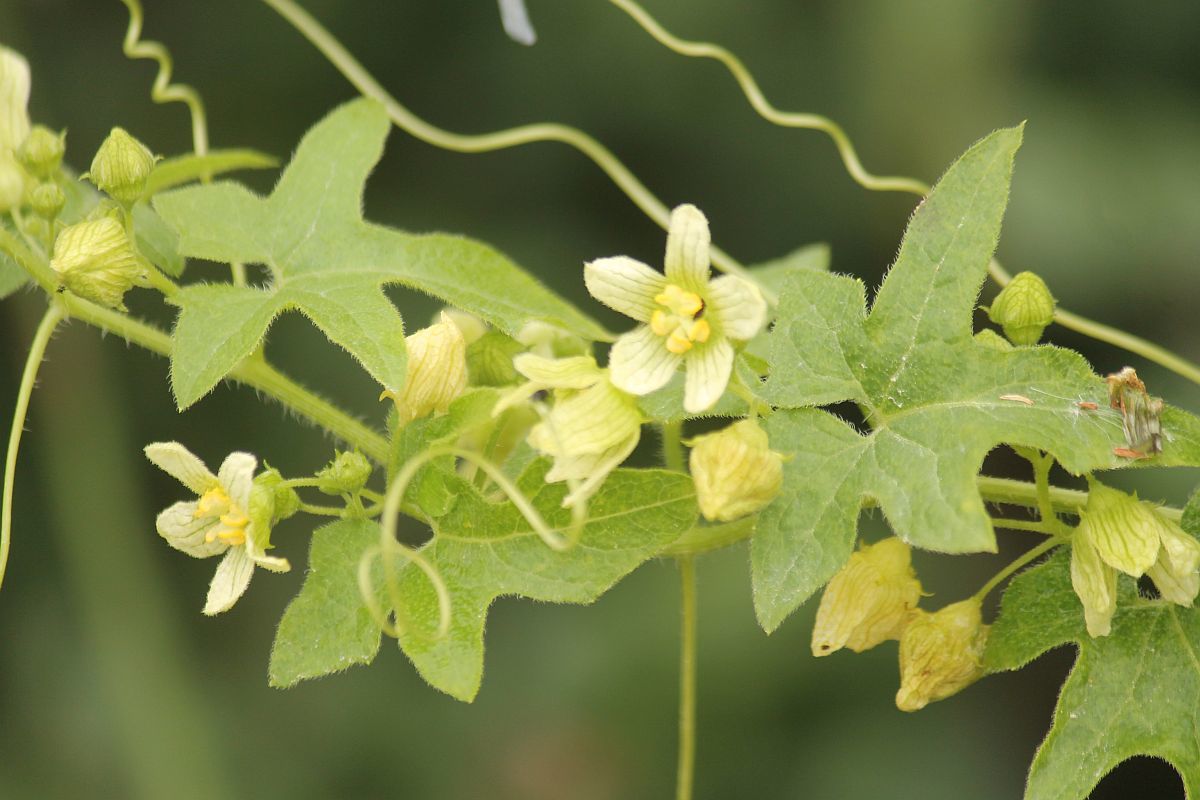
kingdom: Plantae
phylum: Tracheophyta
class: Magnoliopsida
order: Cucurbitales
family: Cucurbitaceae
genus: Bryonia
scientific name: Bryonia cretica
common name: Cretan bryony
